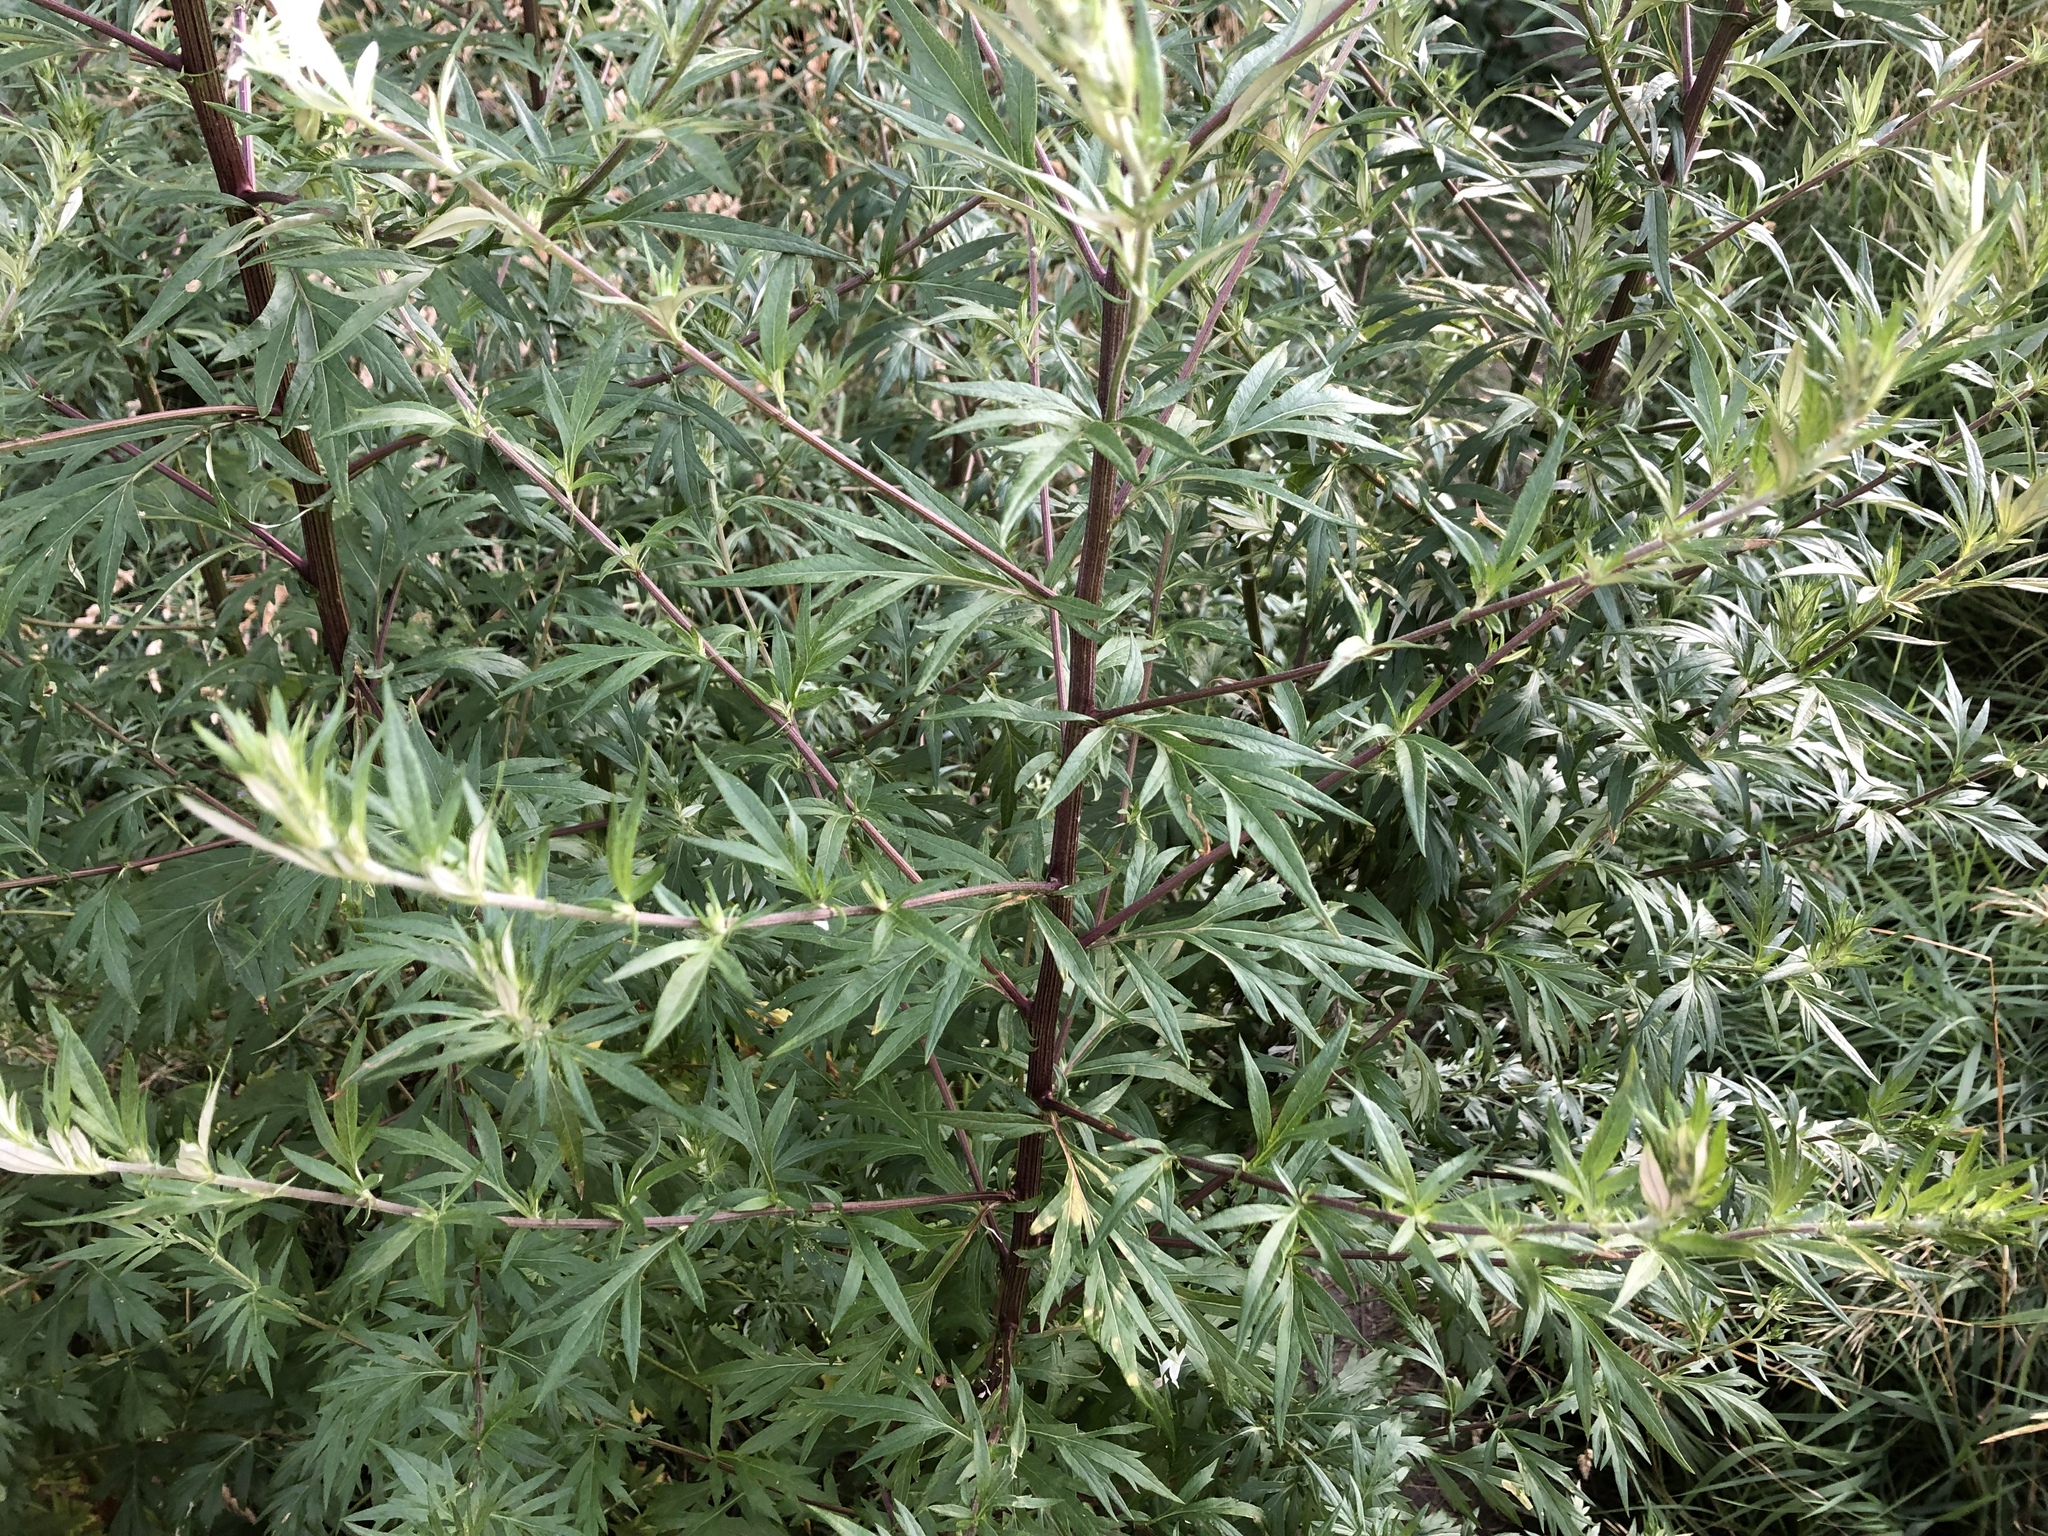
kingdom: Plantae
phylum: Tracheophyta
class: Magnoliopsida
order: Asterales
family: Asteraceae
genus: Artemisia
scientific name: Artemisia vulgaris
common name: Mugwort
